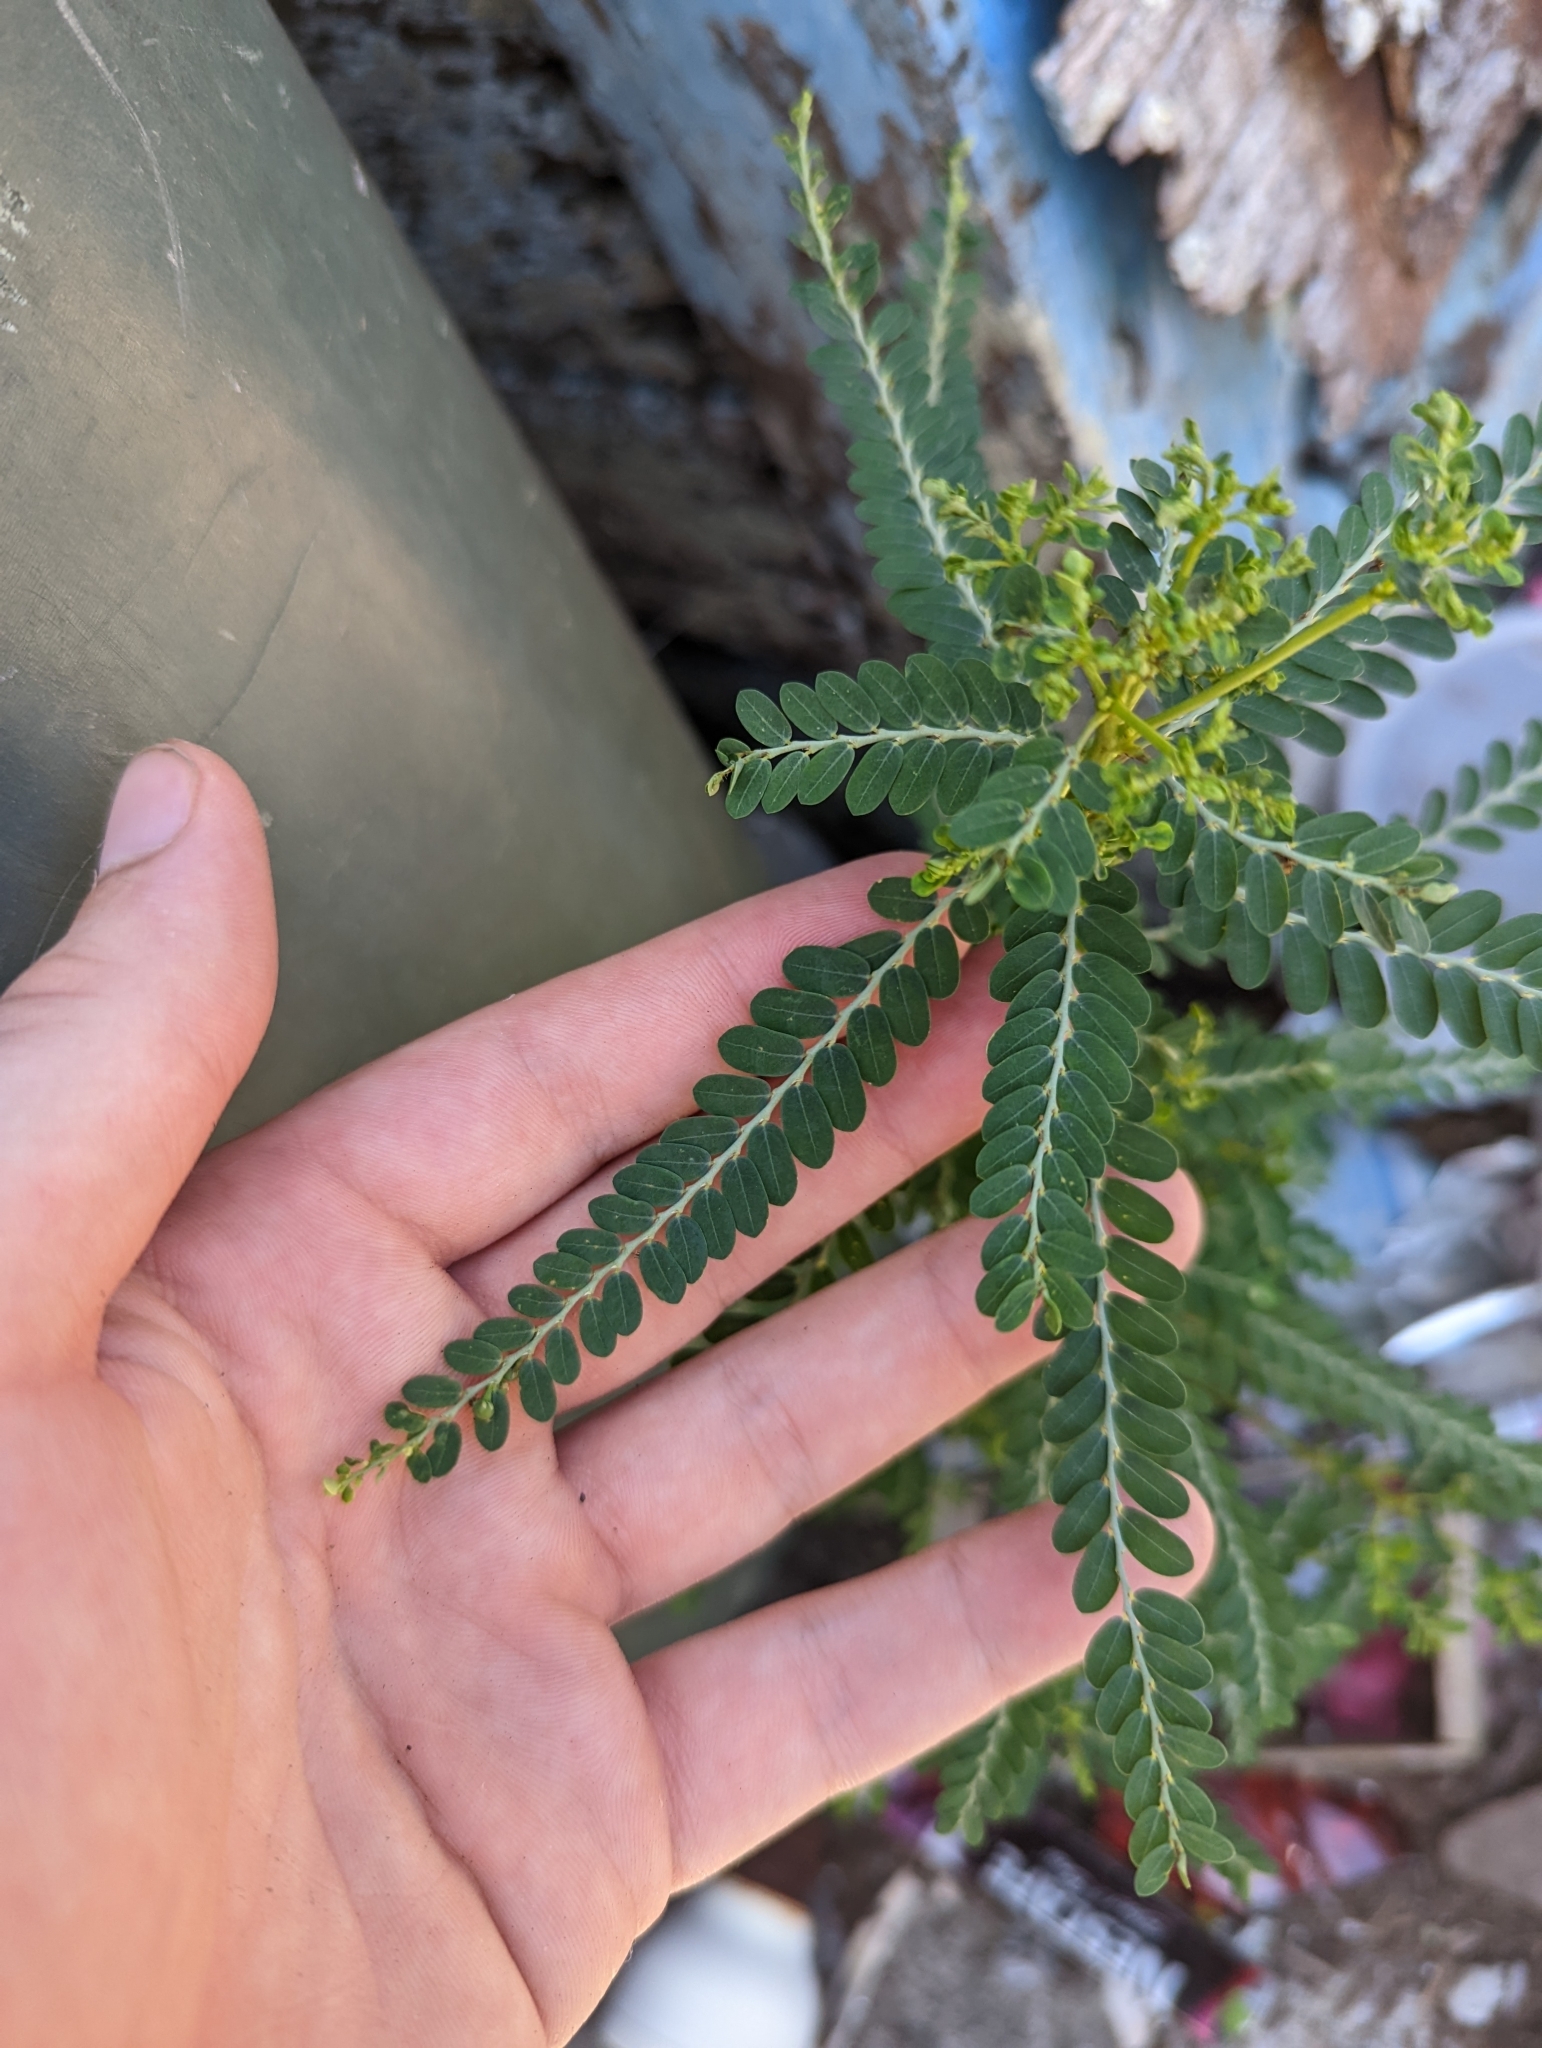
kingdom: Plantae
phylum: Tracheophyta
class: Magnoliopsida
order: Malpighiales
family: Phyllanthaceae
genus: Phyllanthus
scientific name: Phyllanthus amarus
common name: Carry me seed
